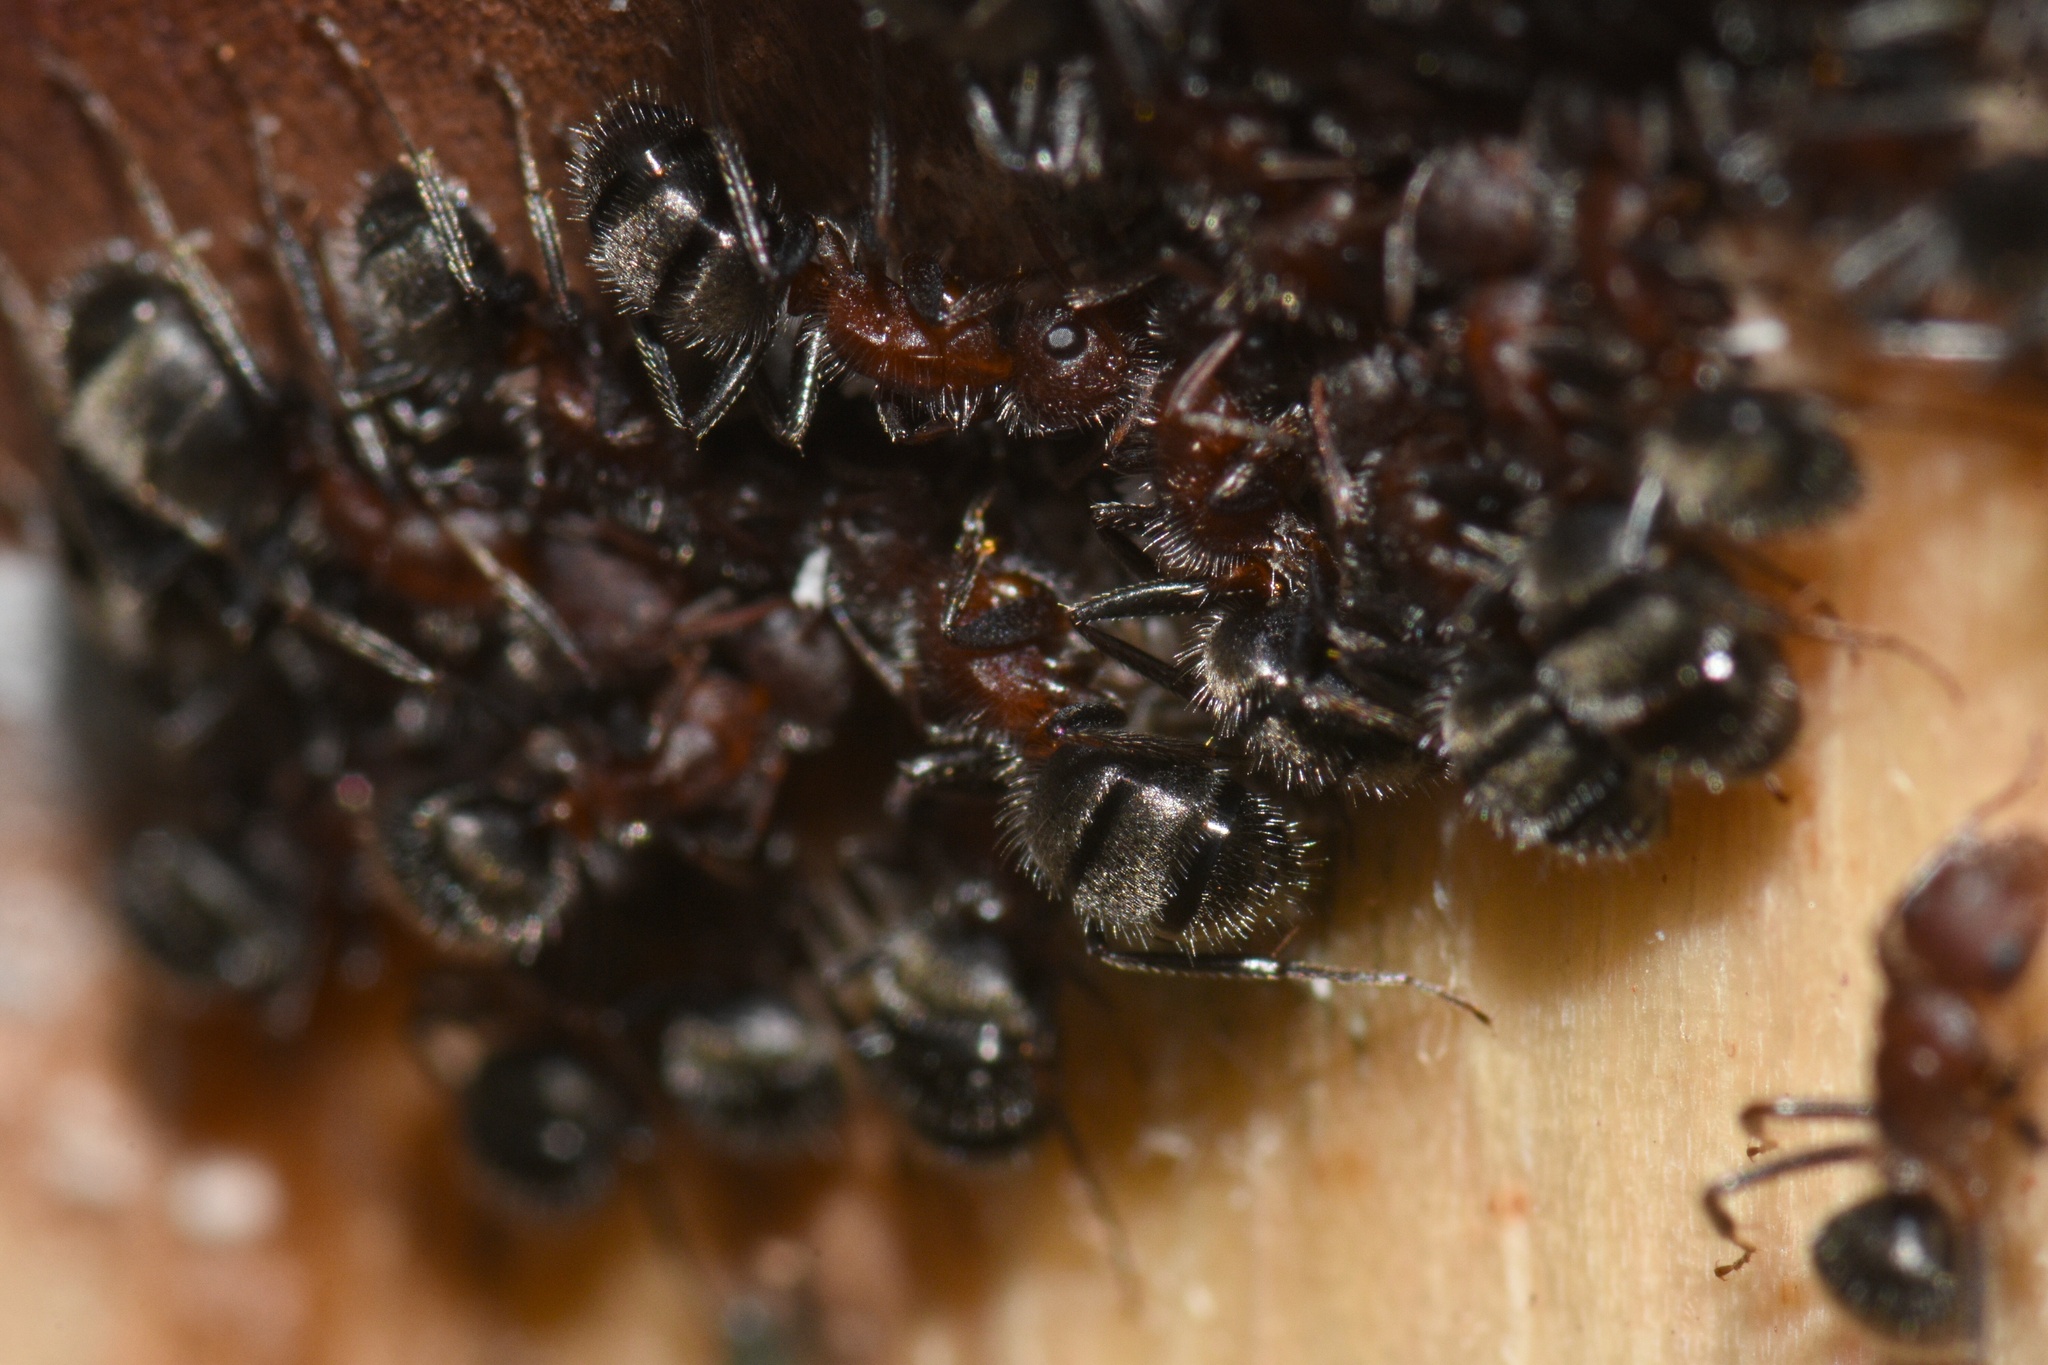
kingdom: Animalia
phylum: Arthropoda
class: Insecta
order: Hymenoptera
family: Formicidae
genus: Camponotus
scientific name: Camponotus planatus
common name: Compact carpenter ant
